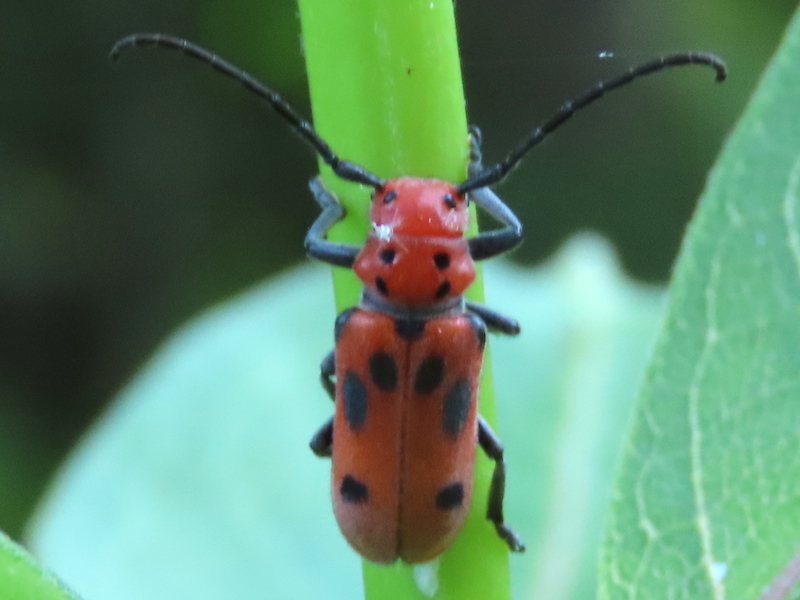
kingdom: Animalia
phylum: Arthropoda
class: Insecta
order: Coleoptera
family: Cerambycidae
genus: Tetraopes
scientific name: Tetraopes tetrophthalmus
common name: Red milkweed beetle
